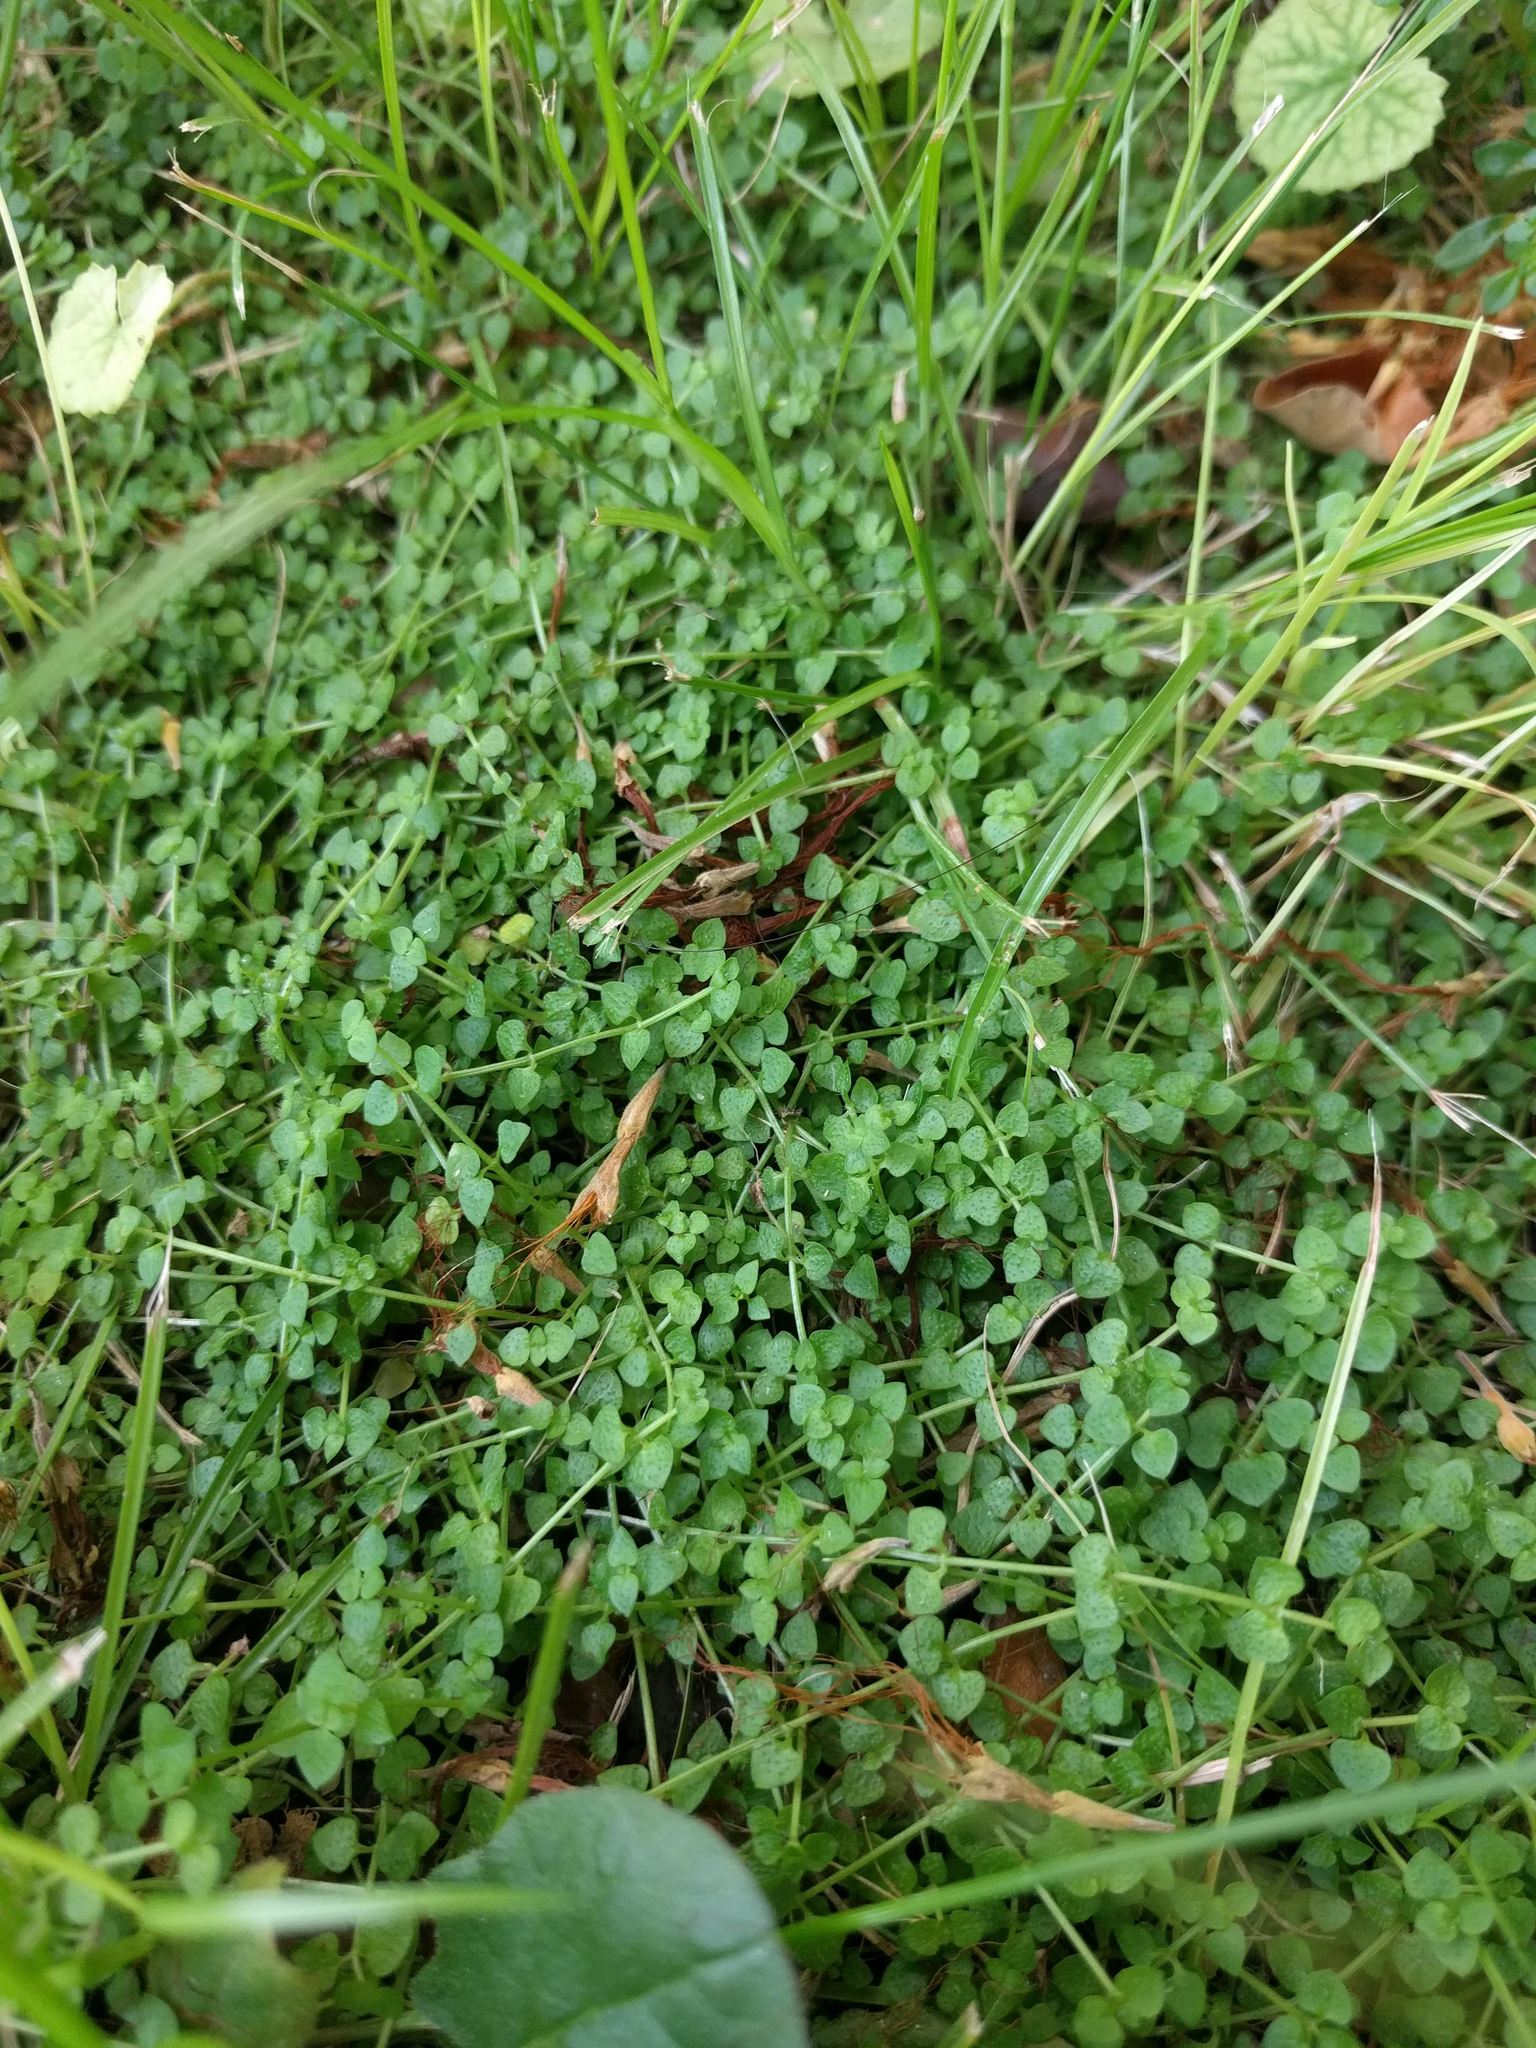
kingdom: Plantae
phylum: Tracheophyta
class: Magnoliopsida
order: Gentianales
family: Rubiaceae
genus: Oldenlandiopsis
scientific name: Oldenlandiopsis callitrichoides
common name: Creeping-bluet
